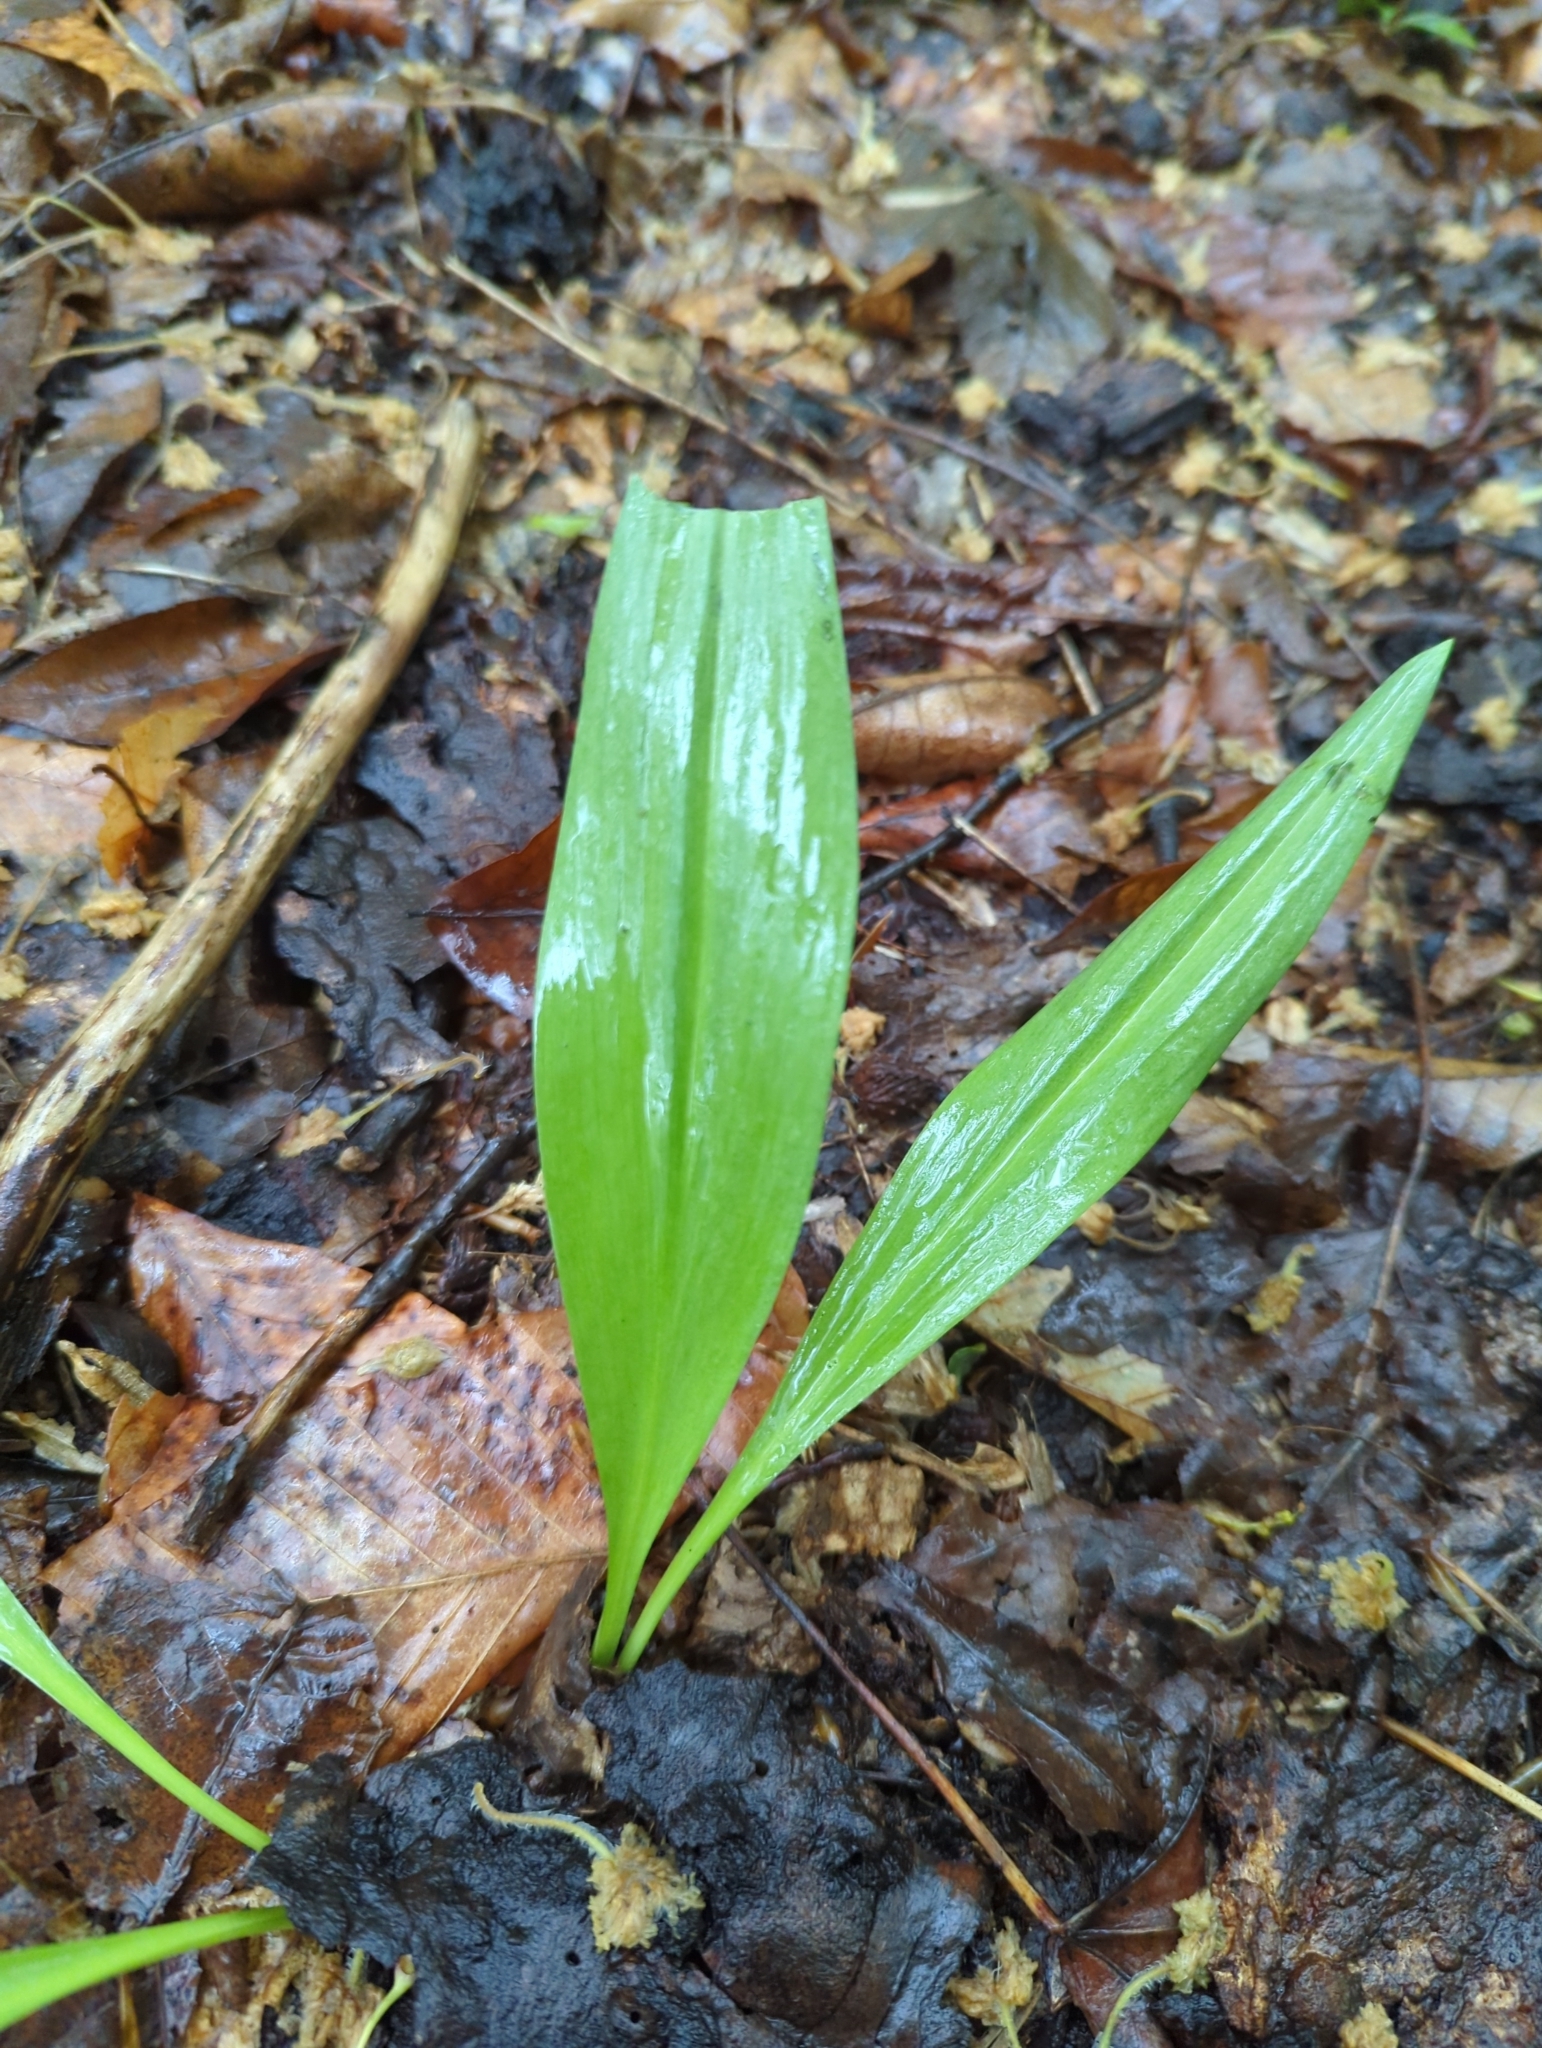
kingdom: Plantae
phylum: Tracheophyta
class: Liliopsida
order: Asparagales
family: Amaryllidaceae
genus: Allium
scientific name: Allium tricoccum
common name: Ramp
